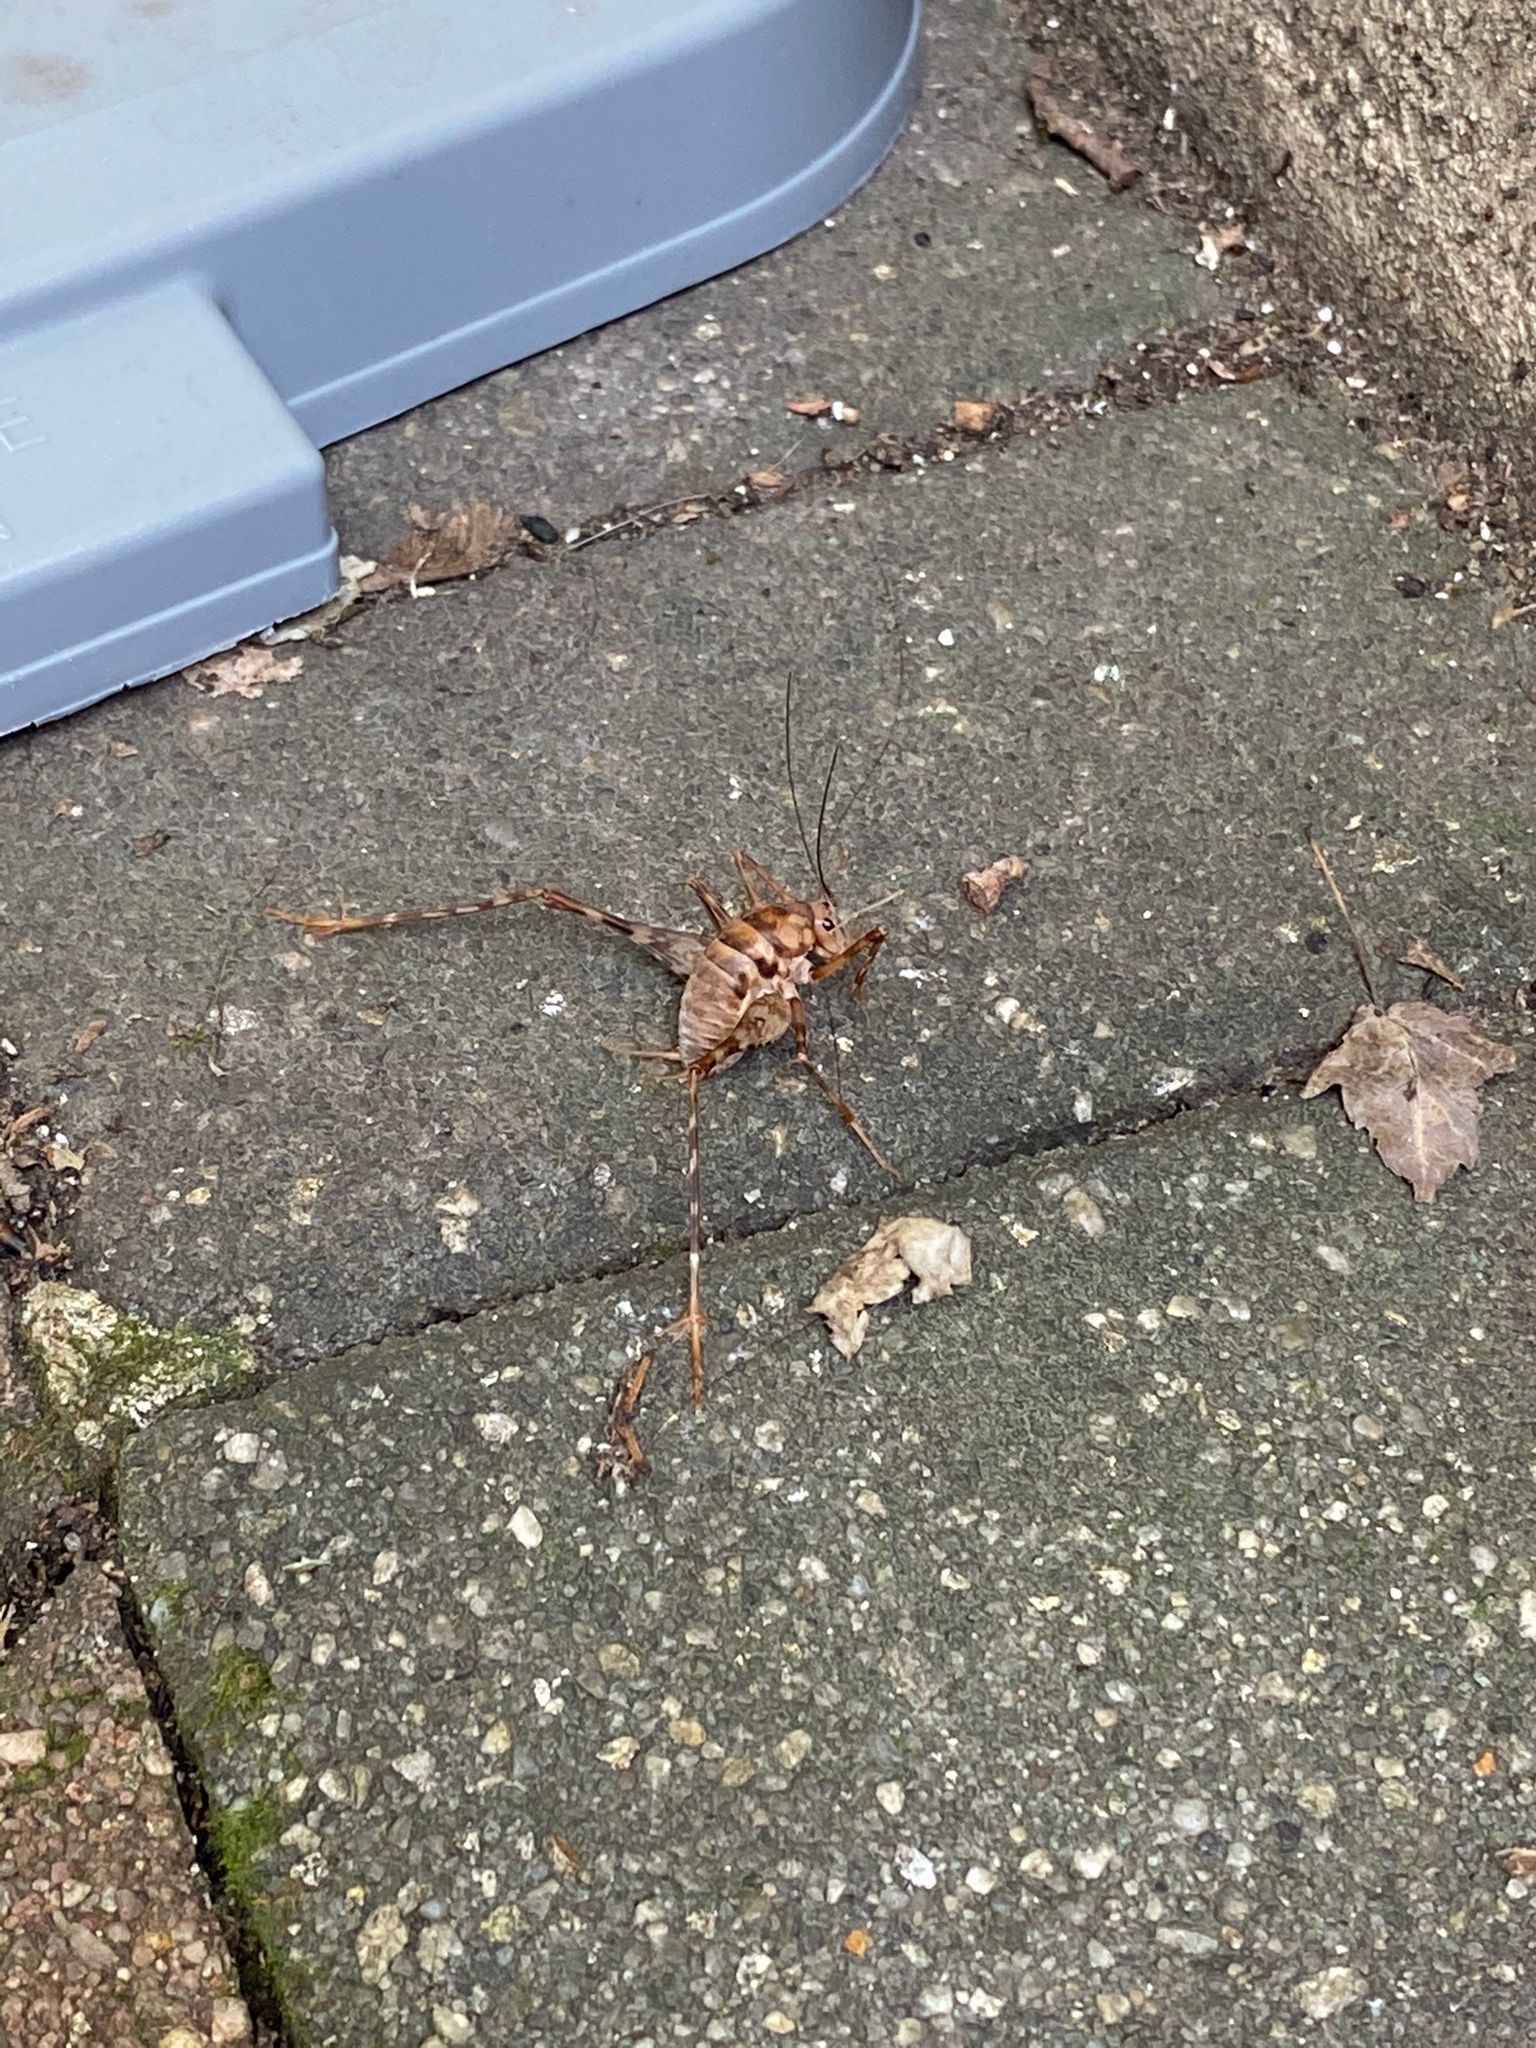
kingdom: Animalia
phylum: Arthropoda
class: Insecta
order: Orthoptera
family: Rhaphidophoridae
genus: Tachycines
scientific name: Tachycines asynamorus
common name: Greenhouse camel cricket
